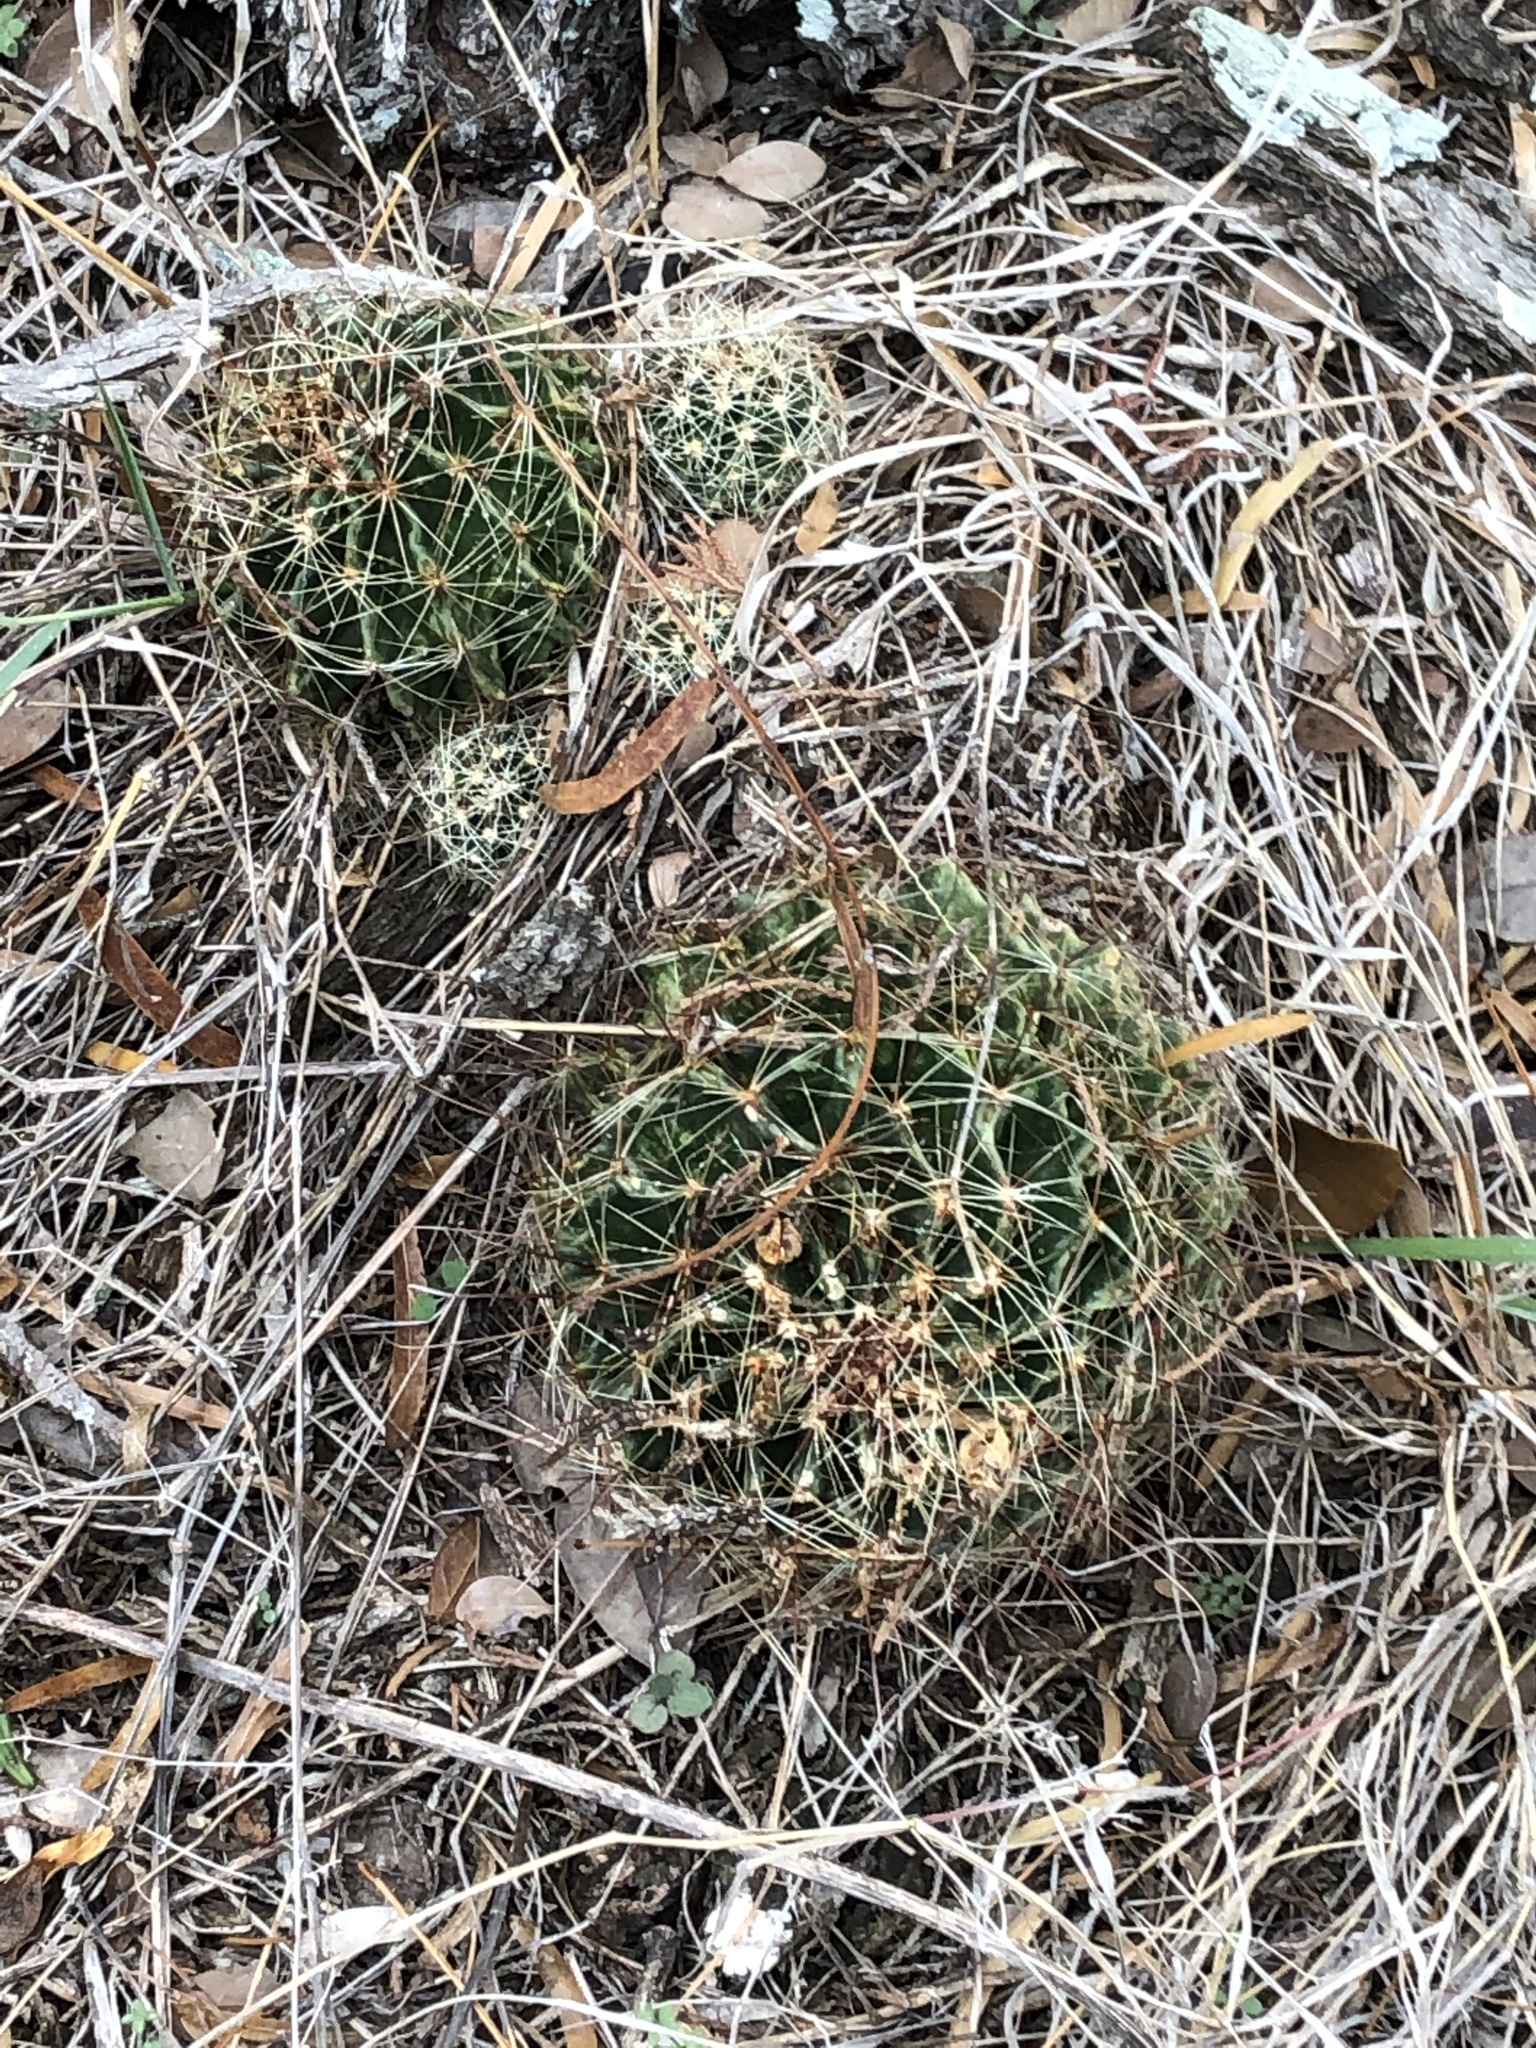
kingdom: Plantae
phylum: Tracheophyta
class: Magnoliopsida
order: Caryophyllales
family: Cactaceae
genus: Thelocactus
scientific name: Thelocactus setispinus
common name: Miniature barrel cactus
